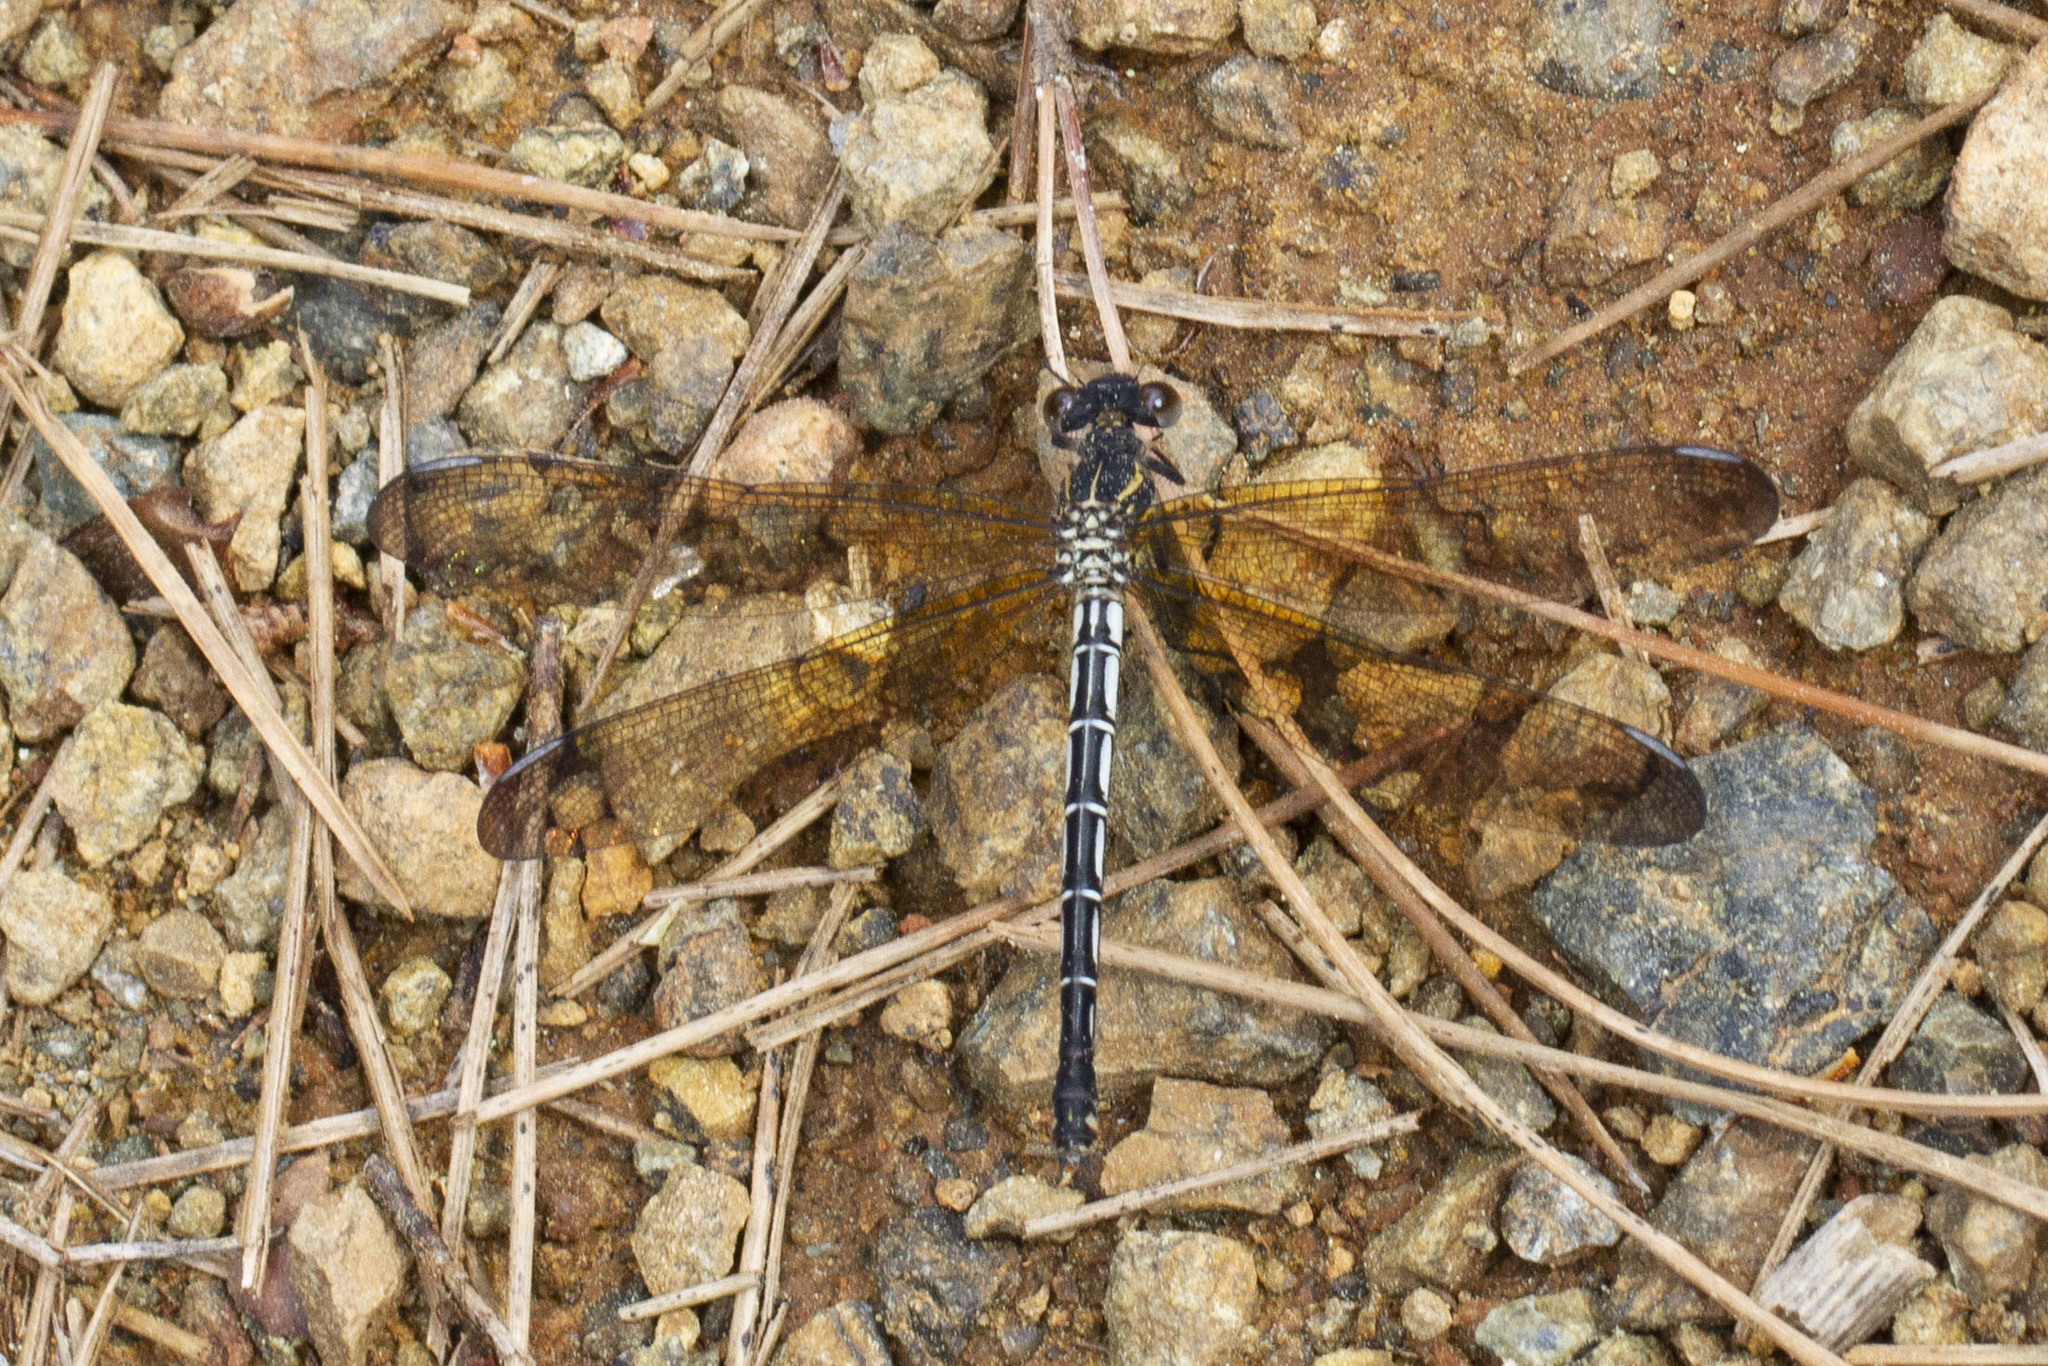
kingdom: Animalia
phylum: Arthropoda
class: Insecta
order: Odonata
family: Euphaeidae
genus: Epallage
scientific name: Epallage fatime
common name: Odalisque
